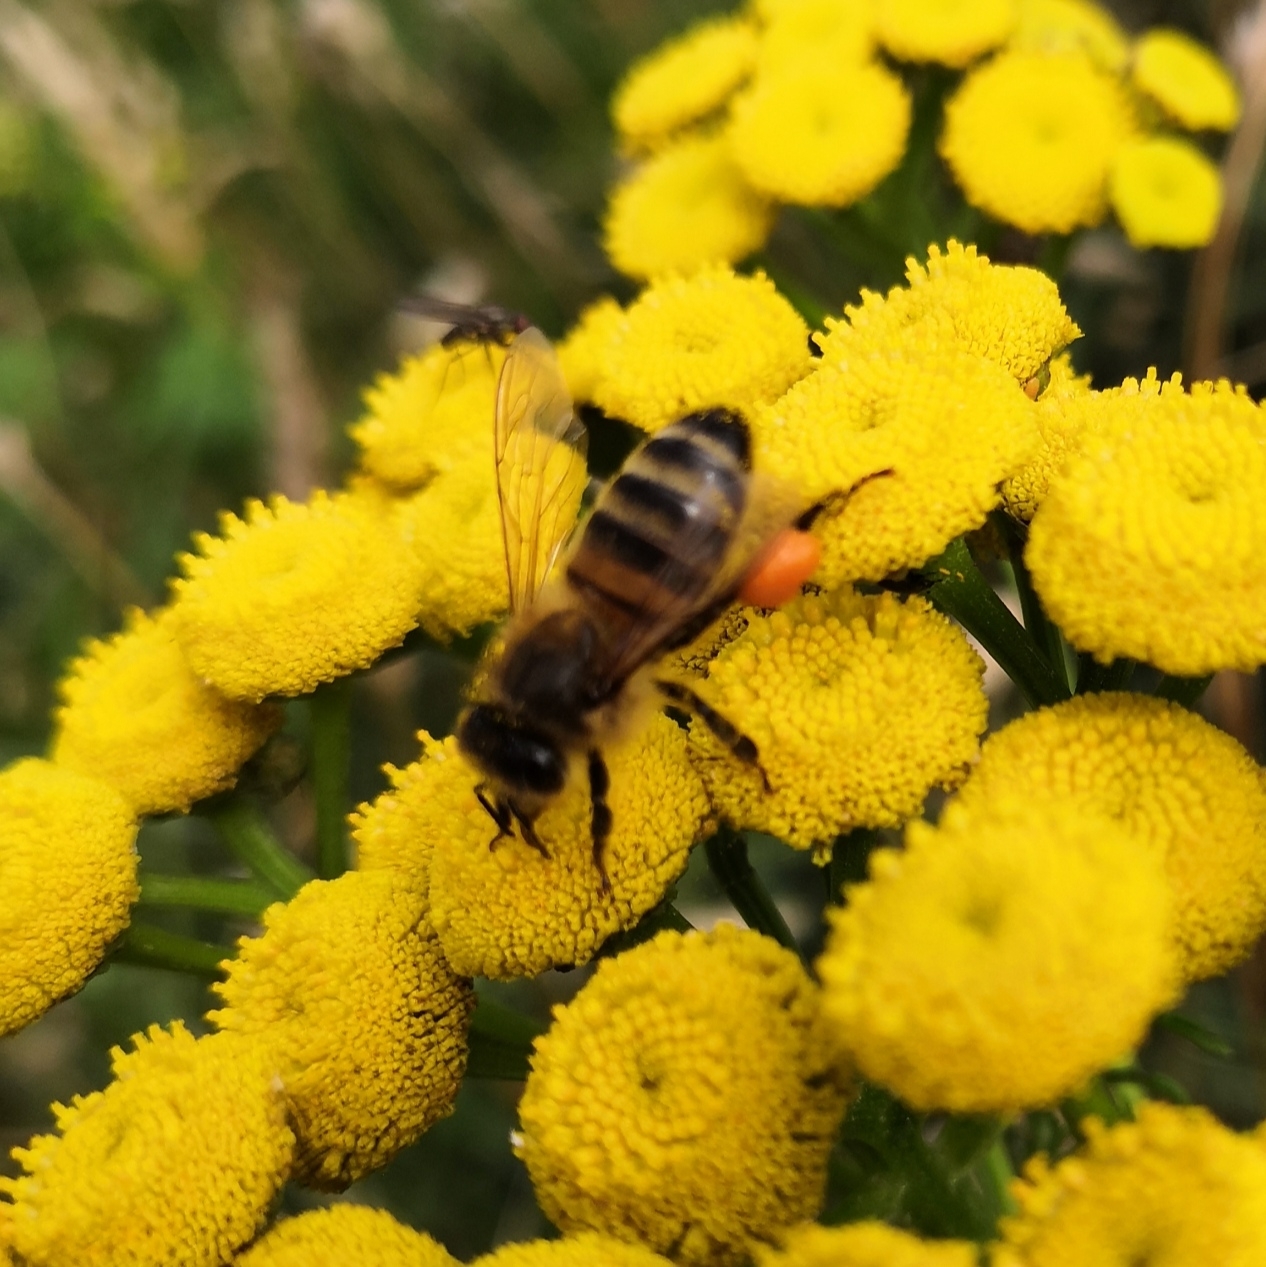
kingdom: Animalia
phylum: Arthropoda
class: Insecta
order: Hymenoptera
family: Apidae
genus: Apis
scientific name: Apis mellifera
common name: Honey bee
